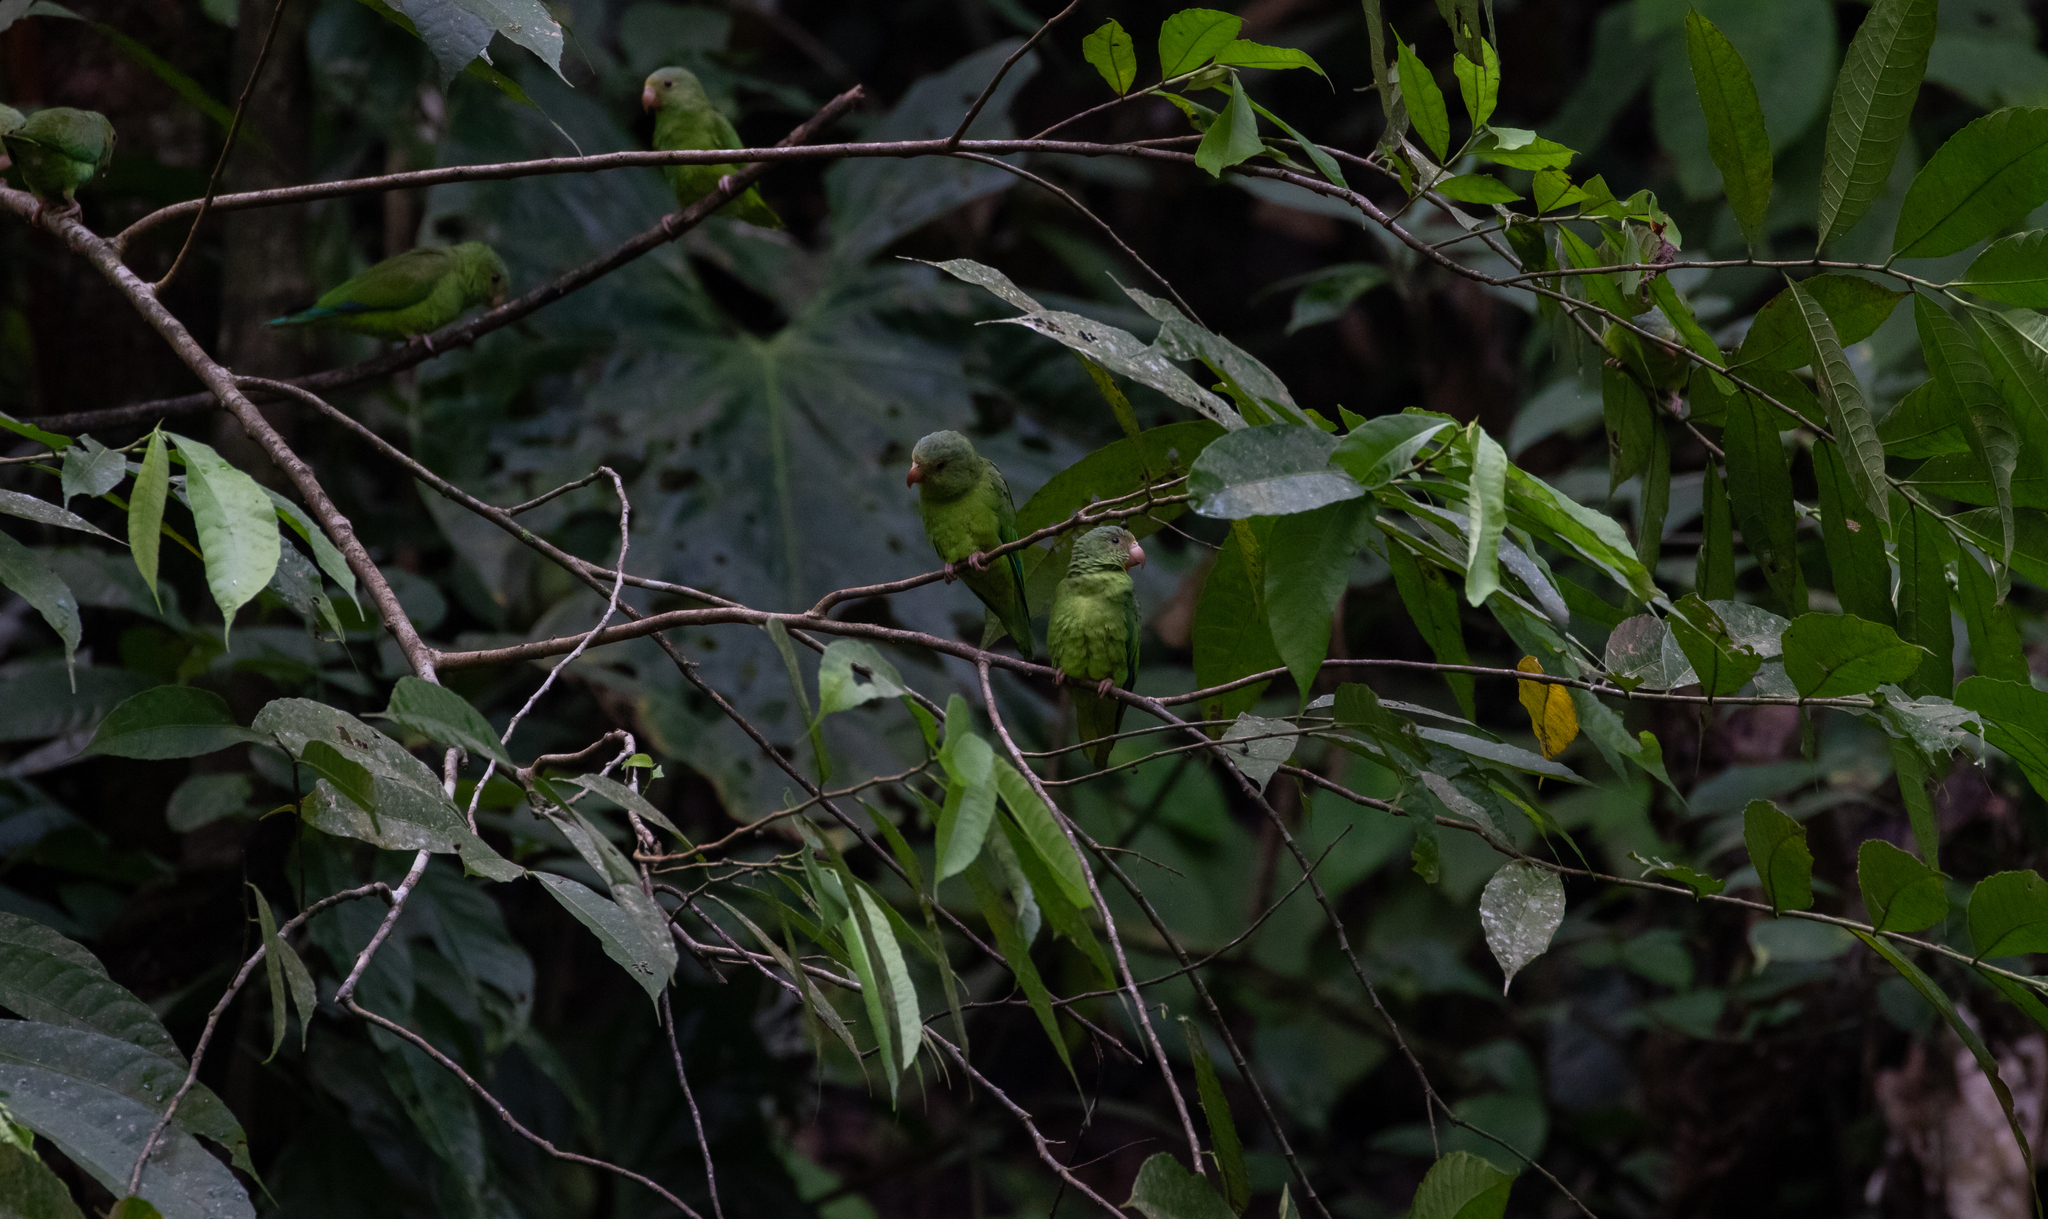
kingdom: Animalia
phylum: Chordata
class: Aves
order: Psittaciformes
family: Psittacidae
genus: Brotogeris
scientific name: Brotogeris cyanoptera
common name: Cobalt-winged parakeet
